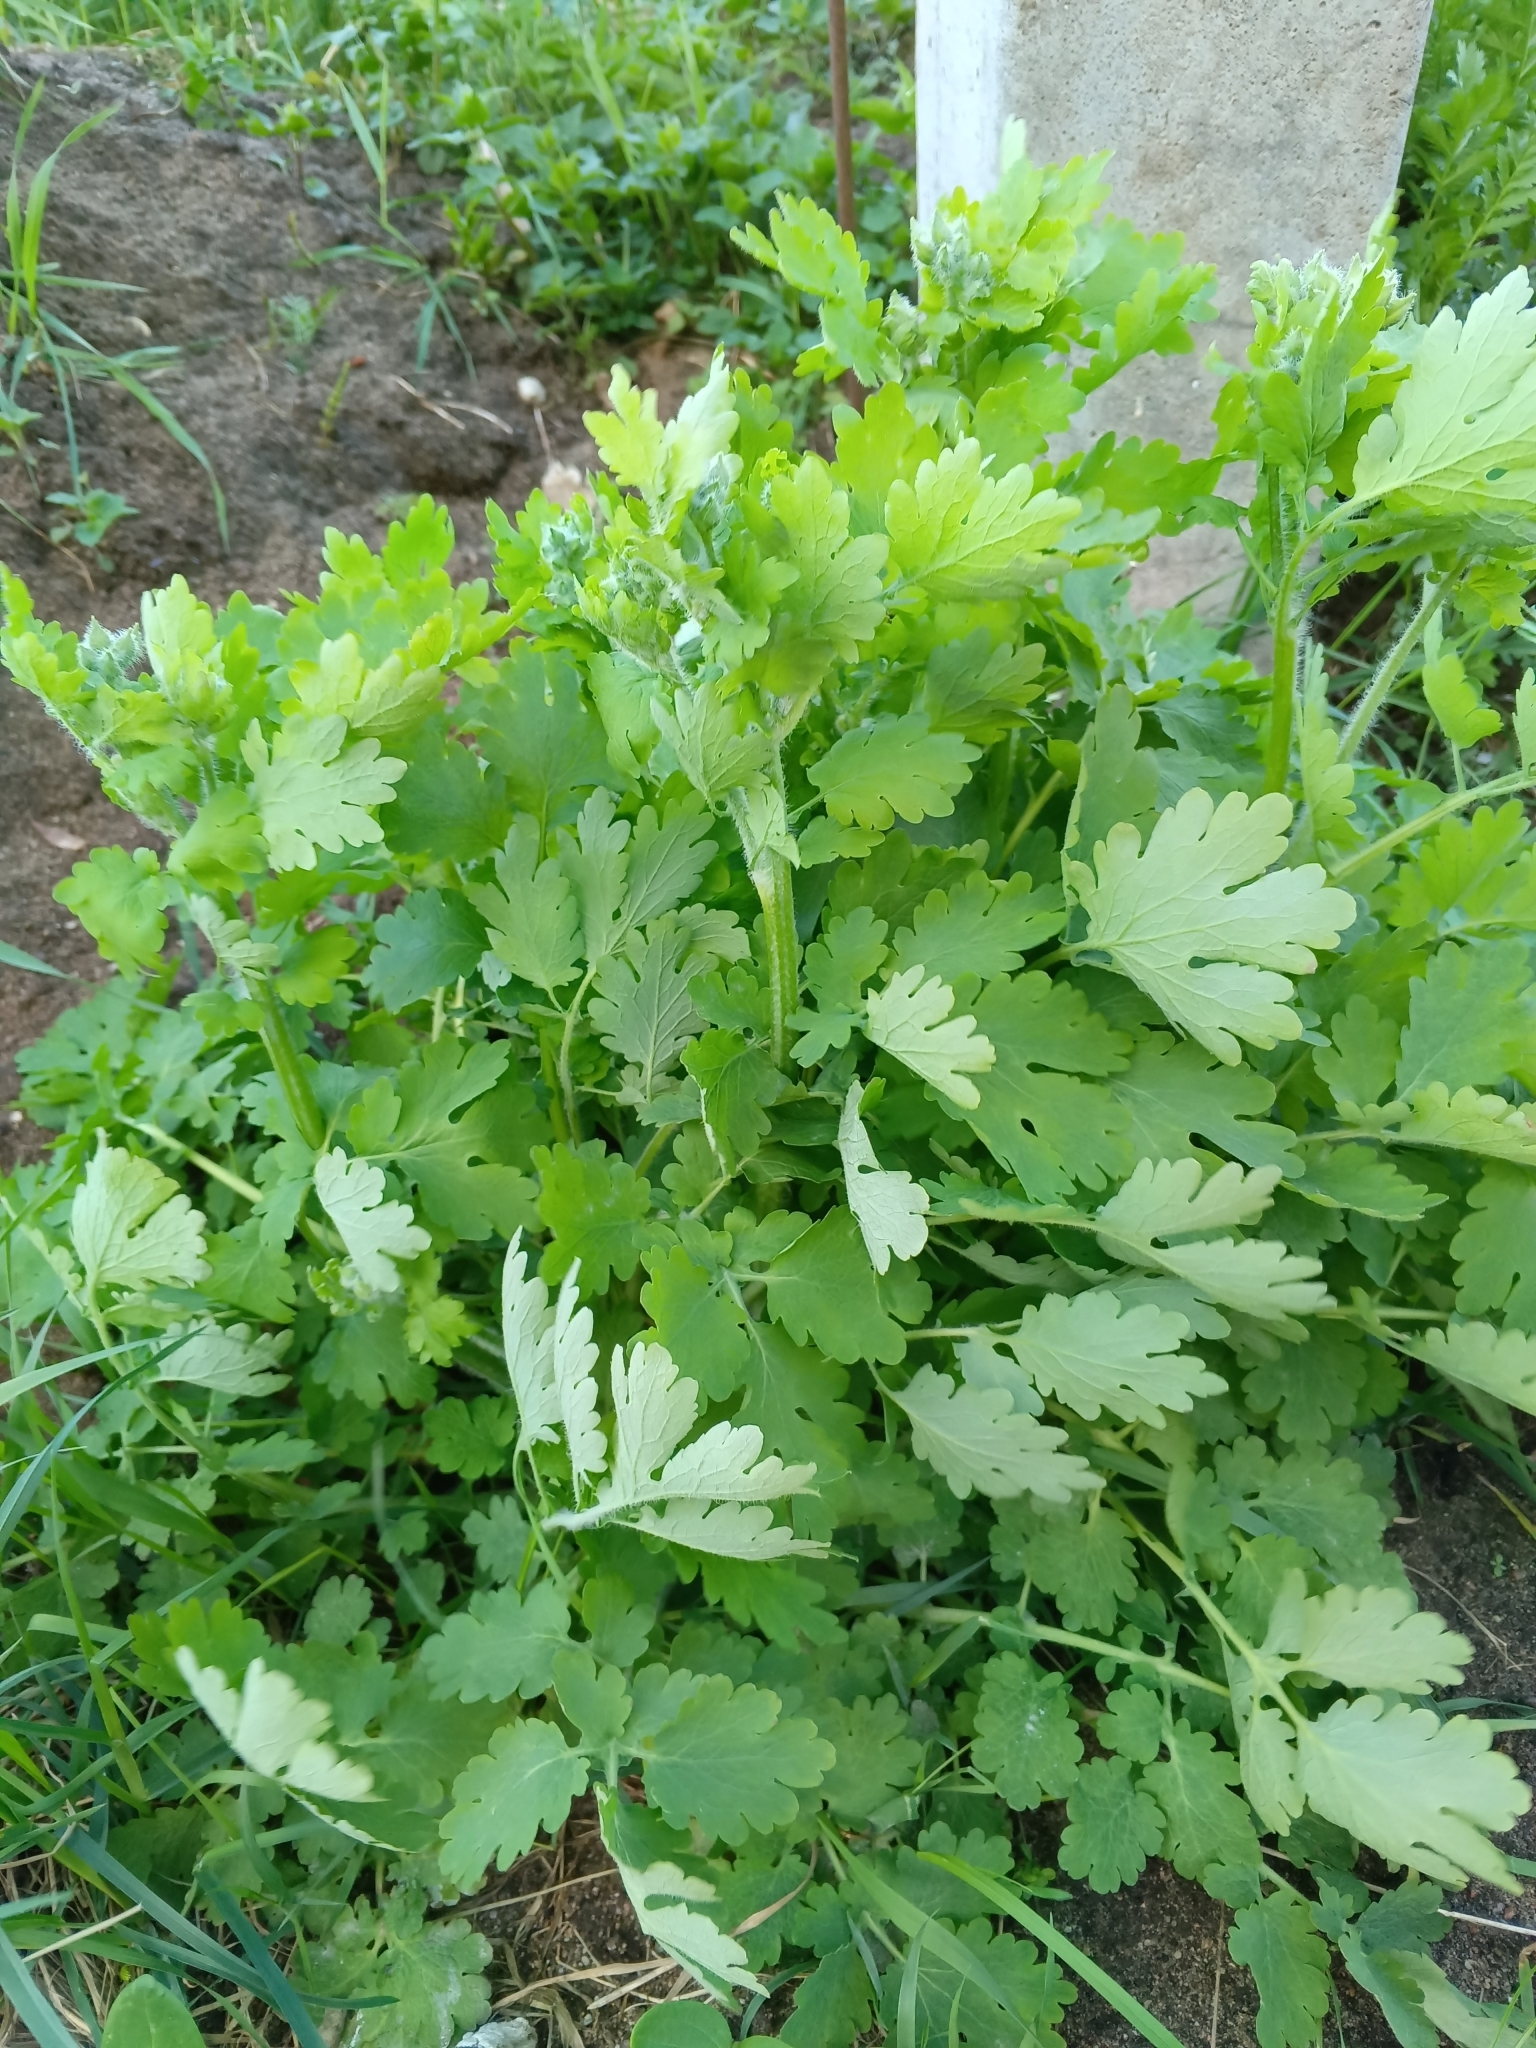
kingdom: Plantae
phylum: Tracheophyta
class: Magnoliopsida
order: Ranunculales
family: Papaveraceae
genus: Chelidonium
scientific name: Chelidonium majus
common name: Greater celandine
